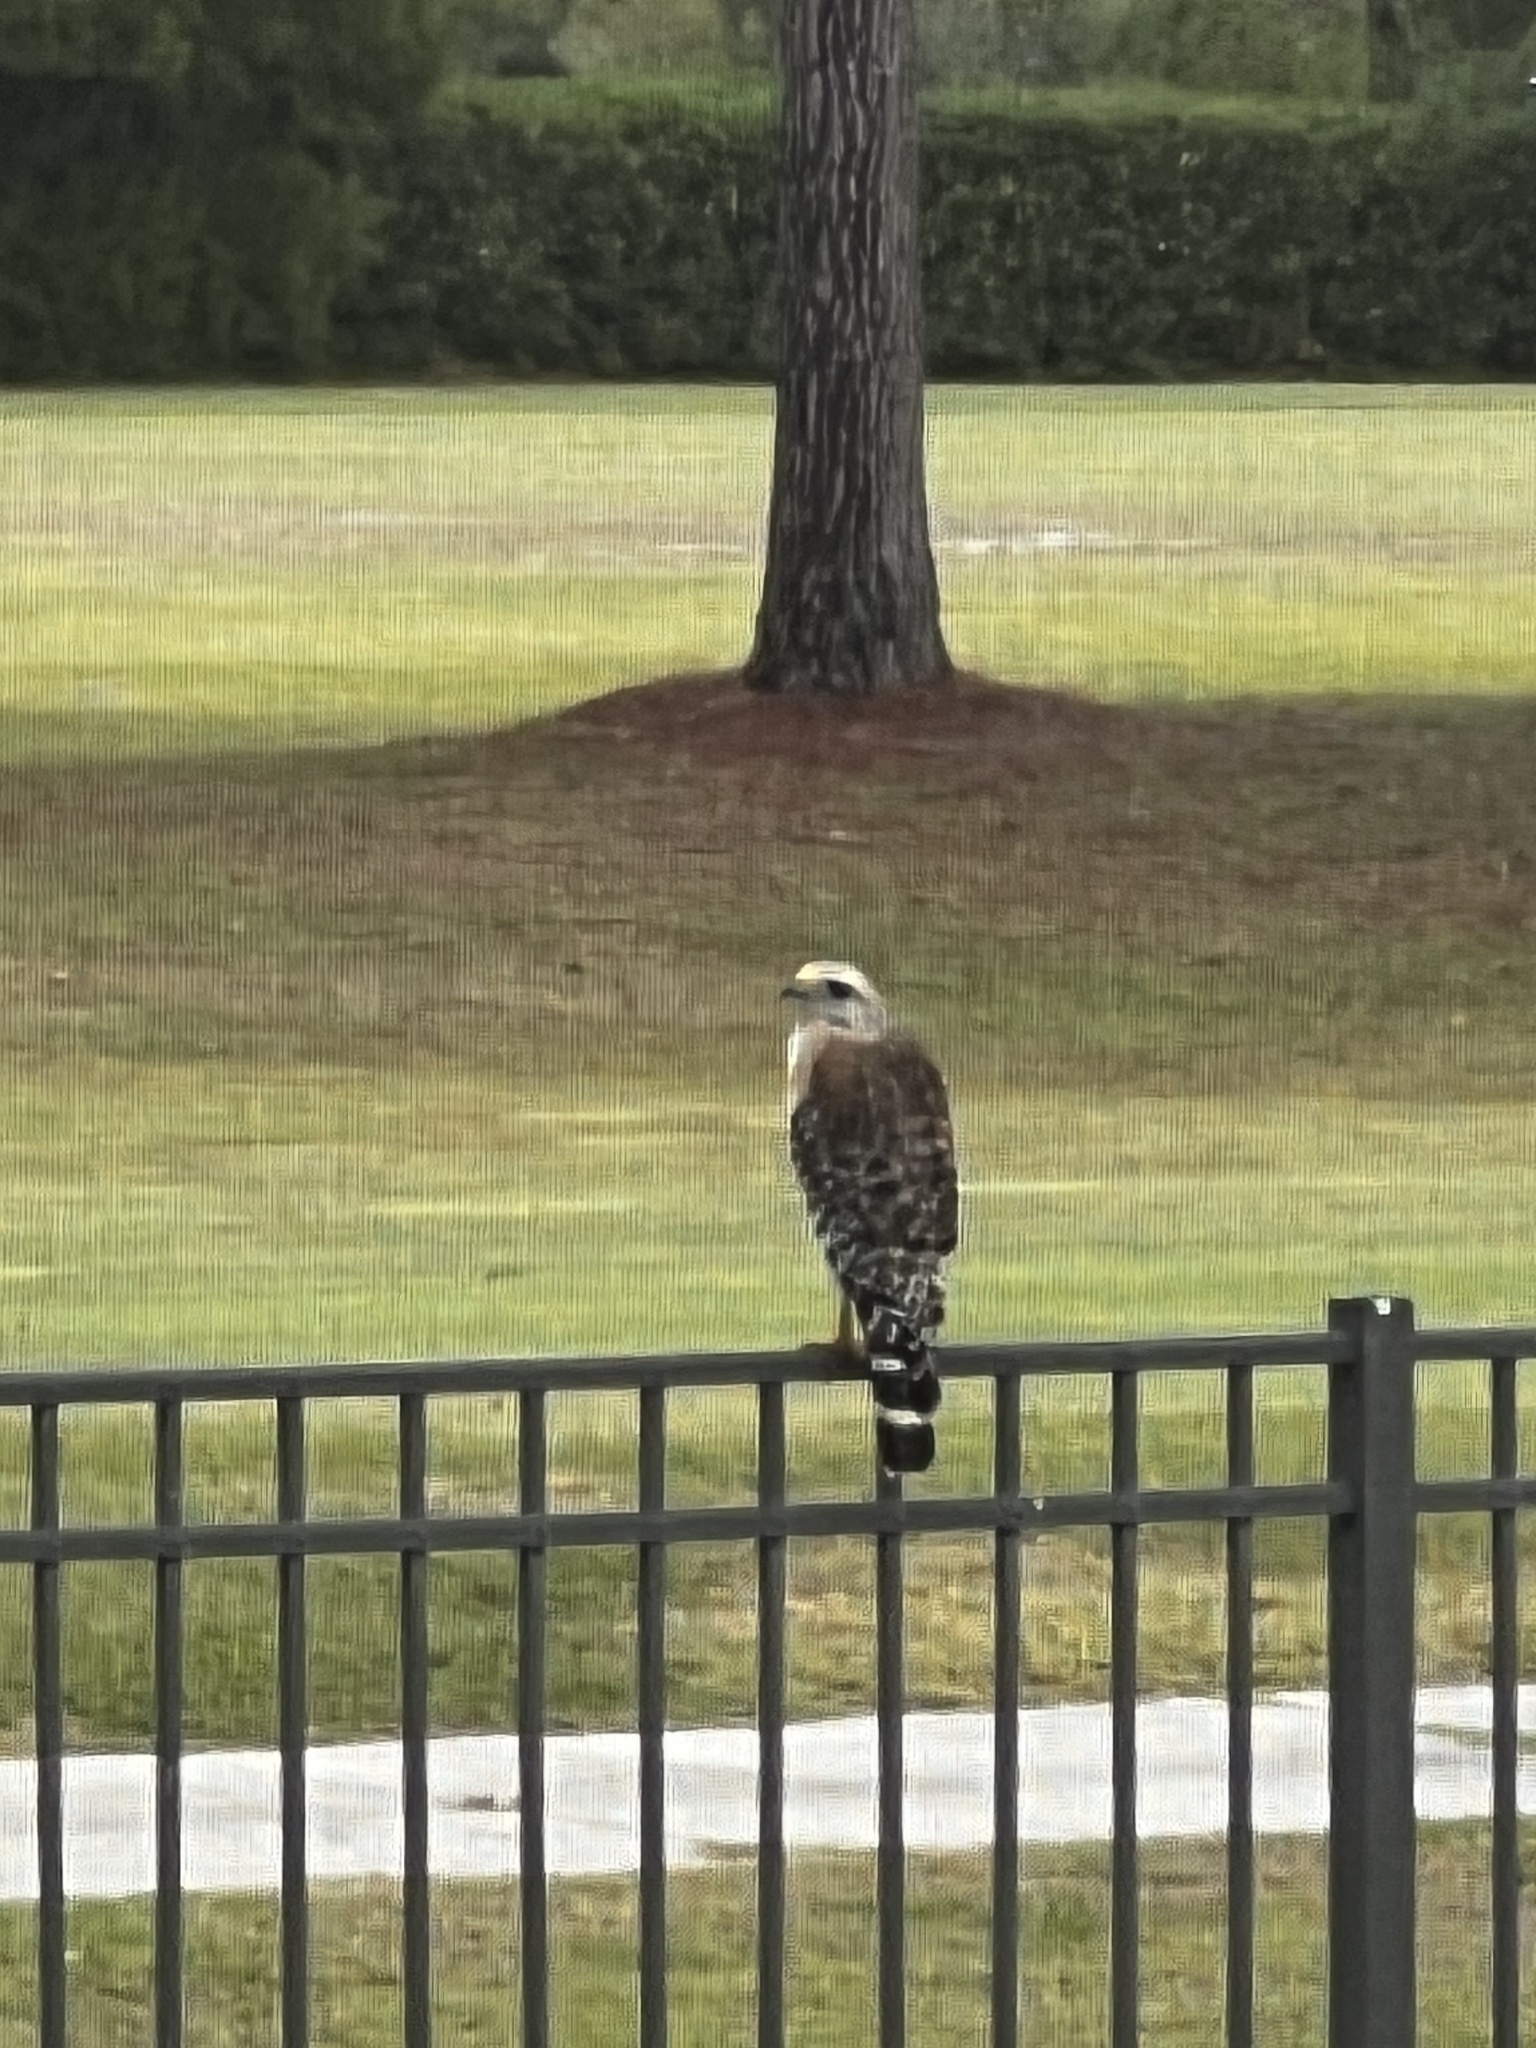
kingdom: Animalia
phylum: Chordata
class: Aves
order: Accipitriformes
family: Accipitridae
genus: Buteo
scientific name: Buteo lineatus
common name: Red-shouldered hawk
